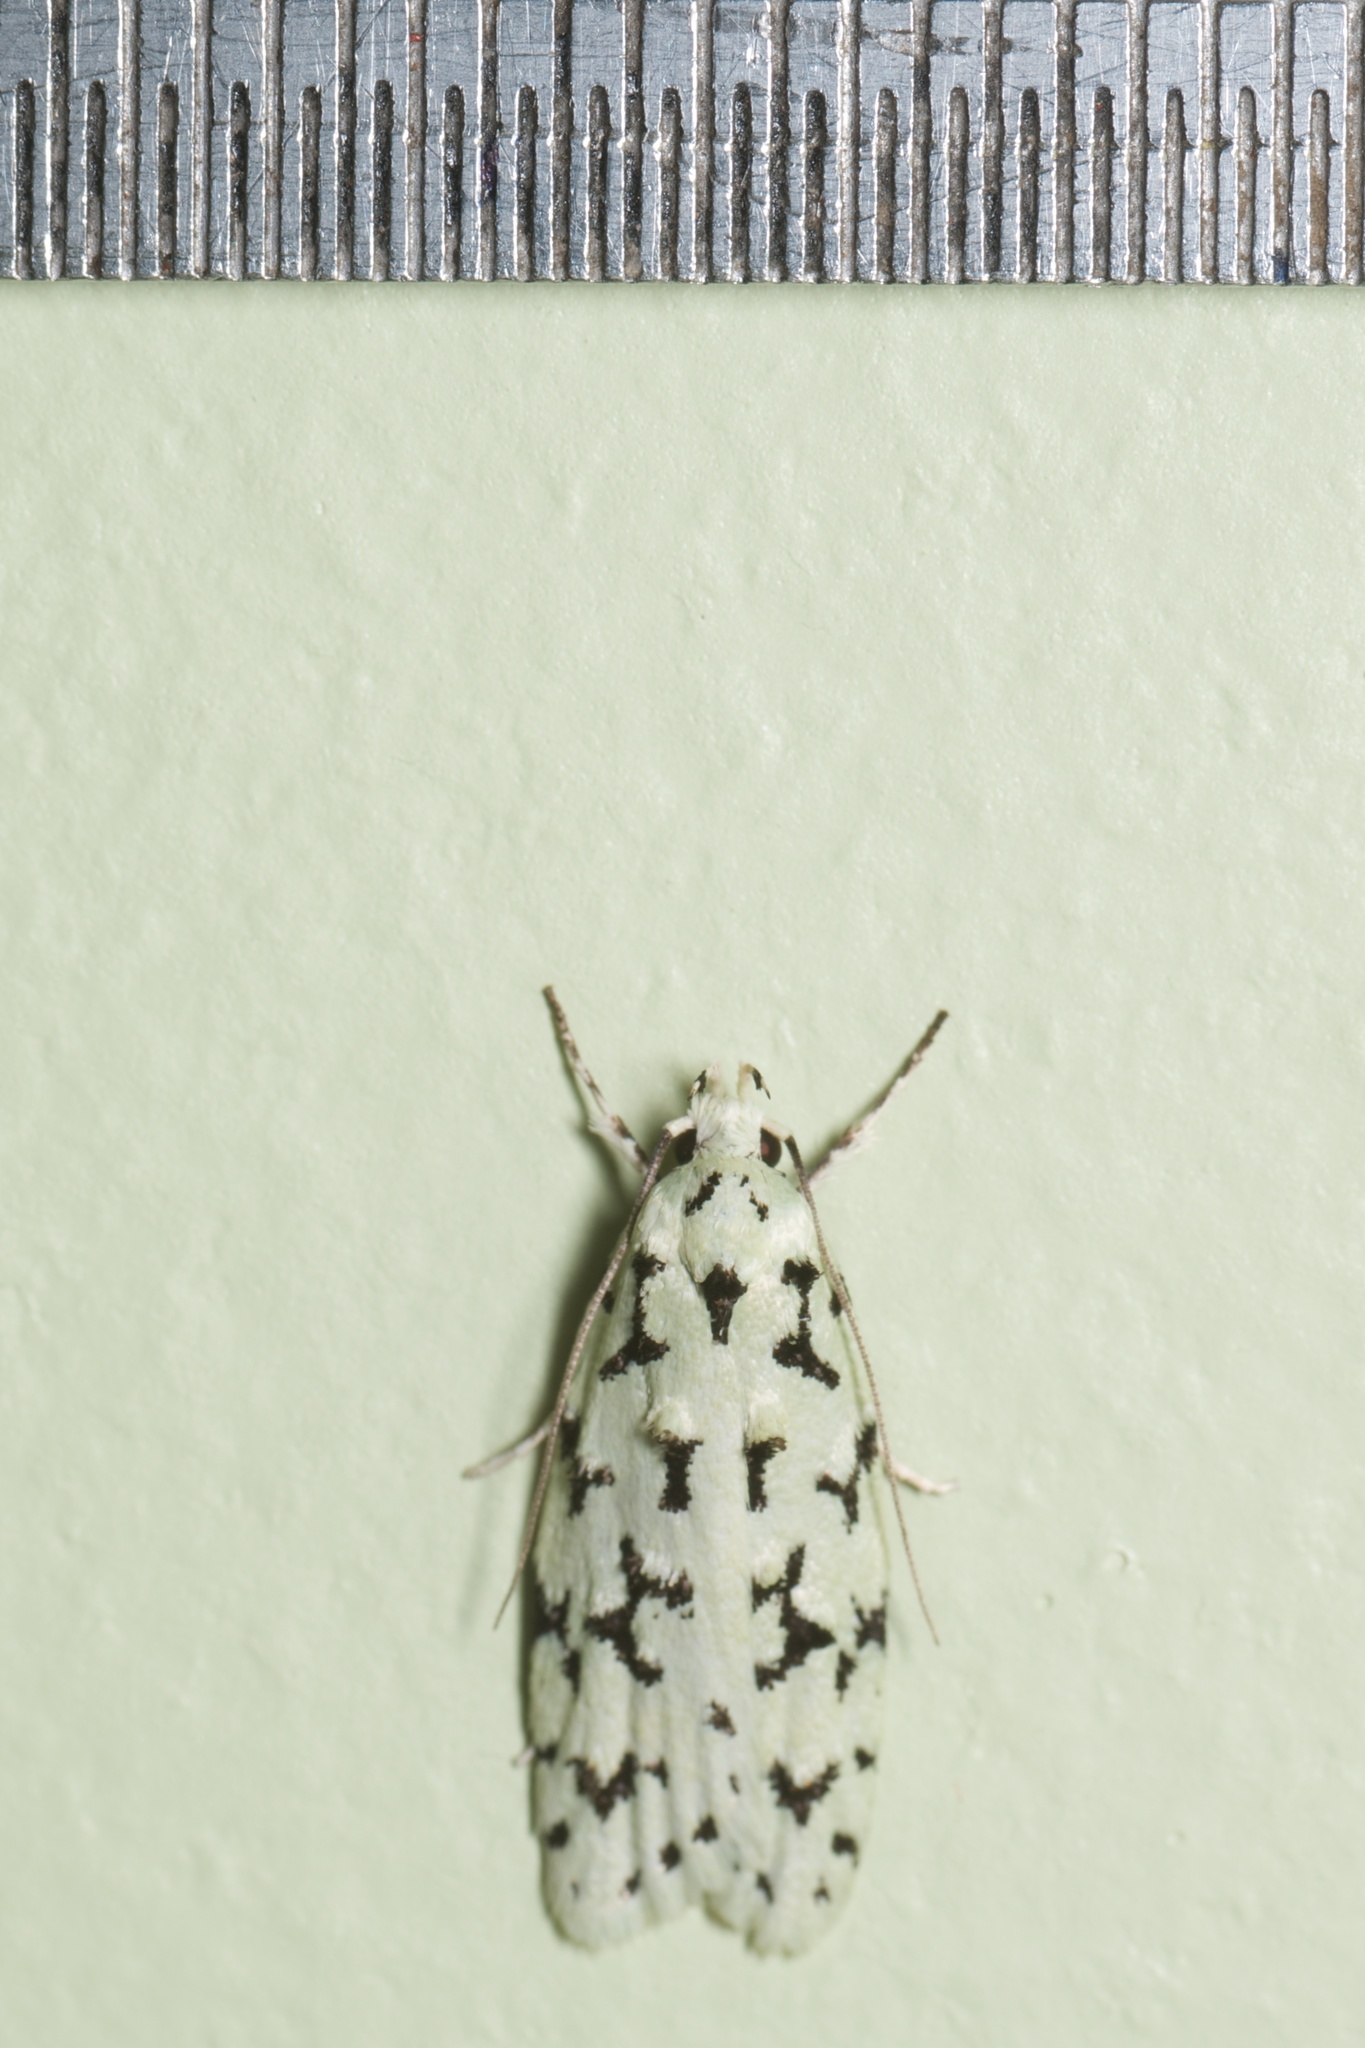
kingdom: Animalia
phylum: Arthropoda
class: Insecta
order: Lepidoptera
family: Oecophoridae
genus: Izatha
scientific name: Izatha huttoni
